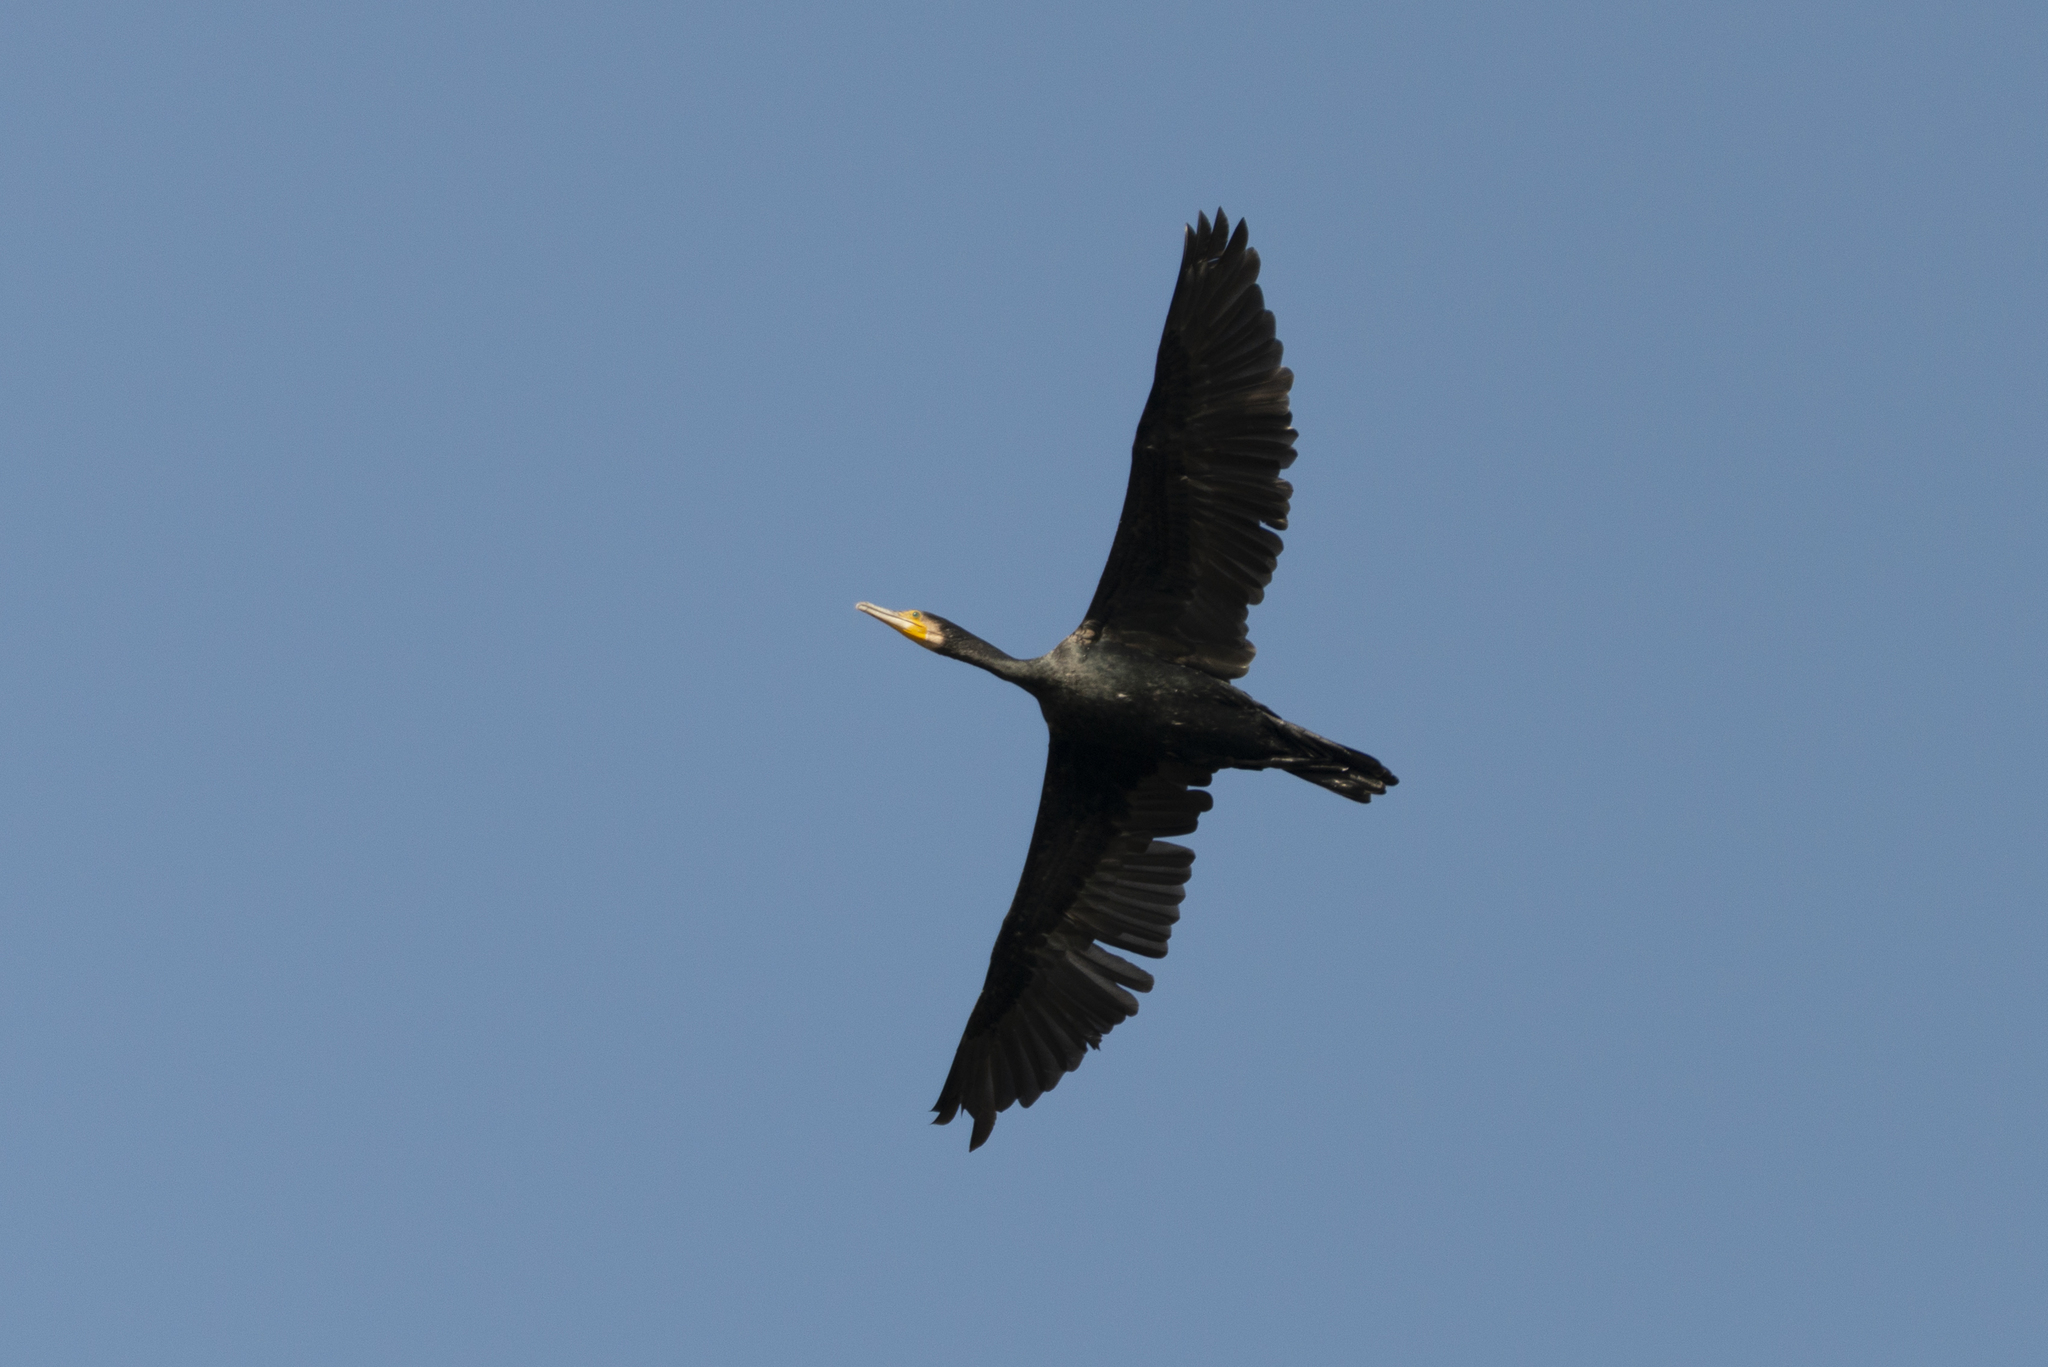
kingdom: Animalia
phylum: Chordata
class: Aves
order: Suliformes
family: Phalacrocoracidae
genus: Phalacrocorax
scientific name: Phalacrocorax carbo
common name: Great cormorant
